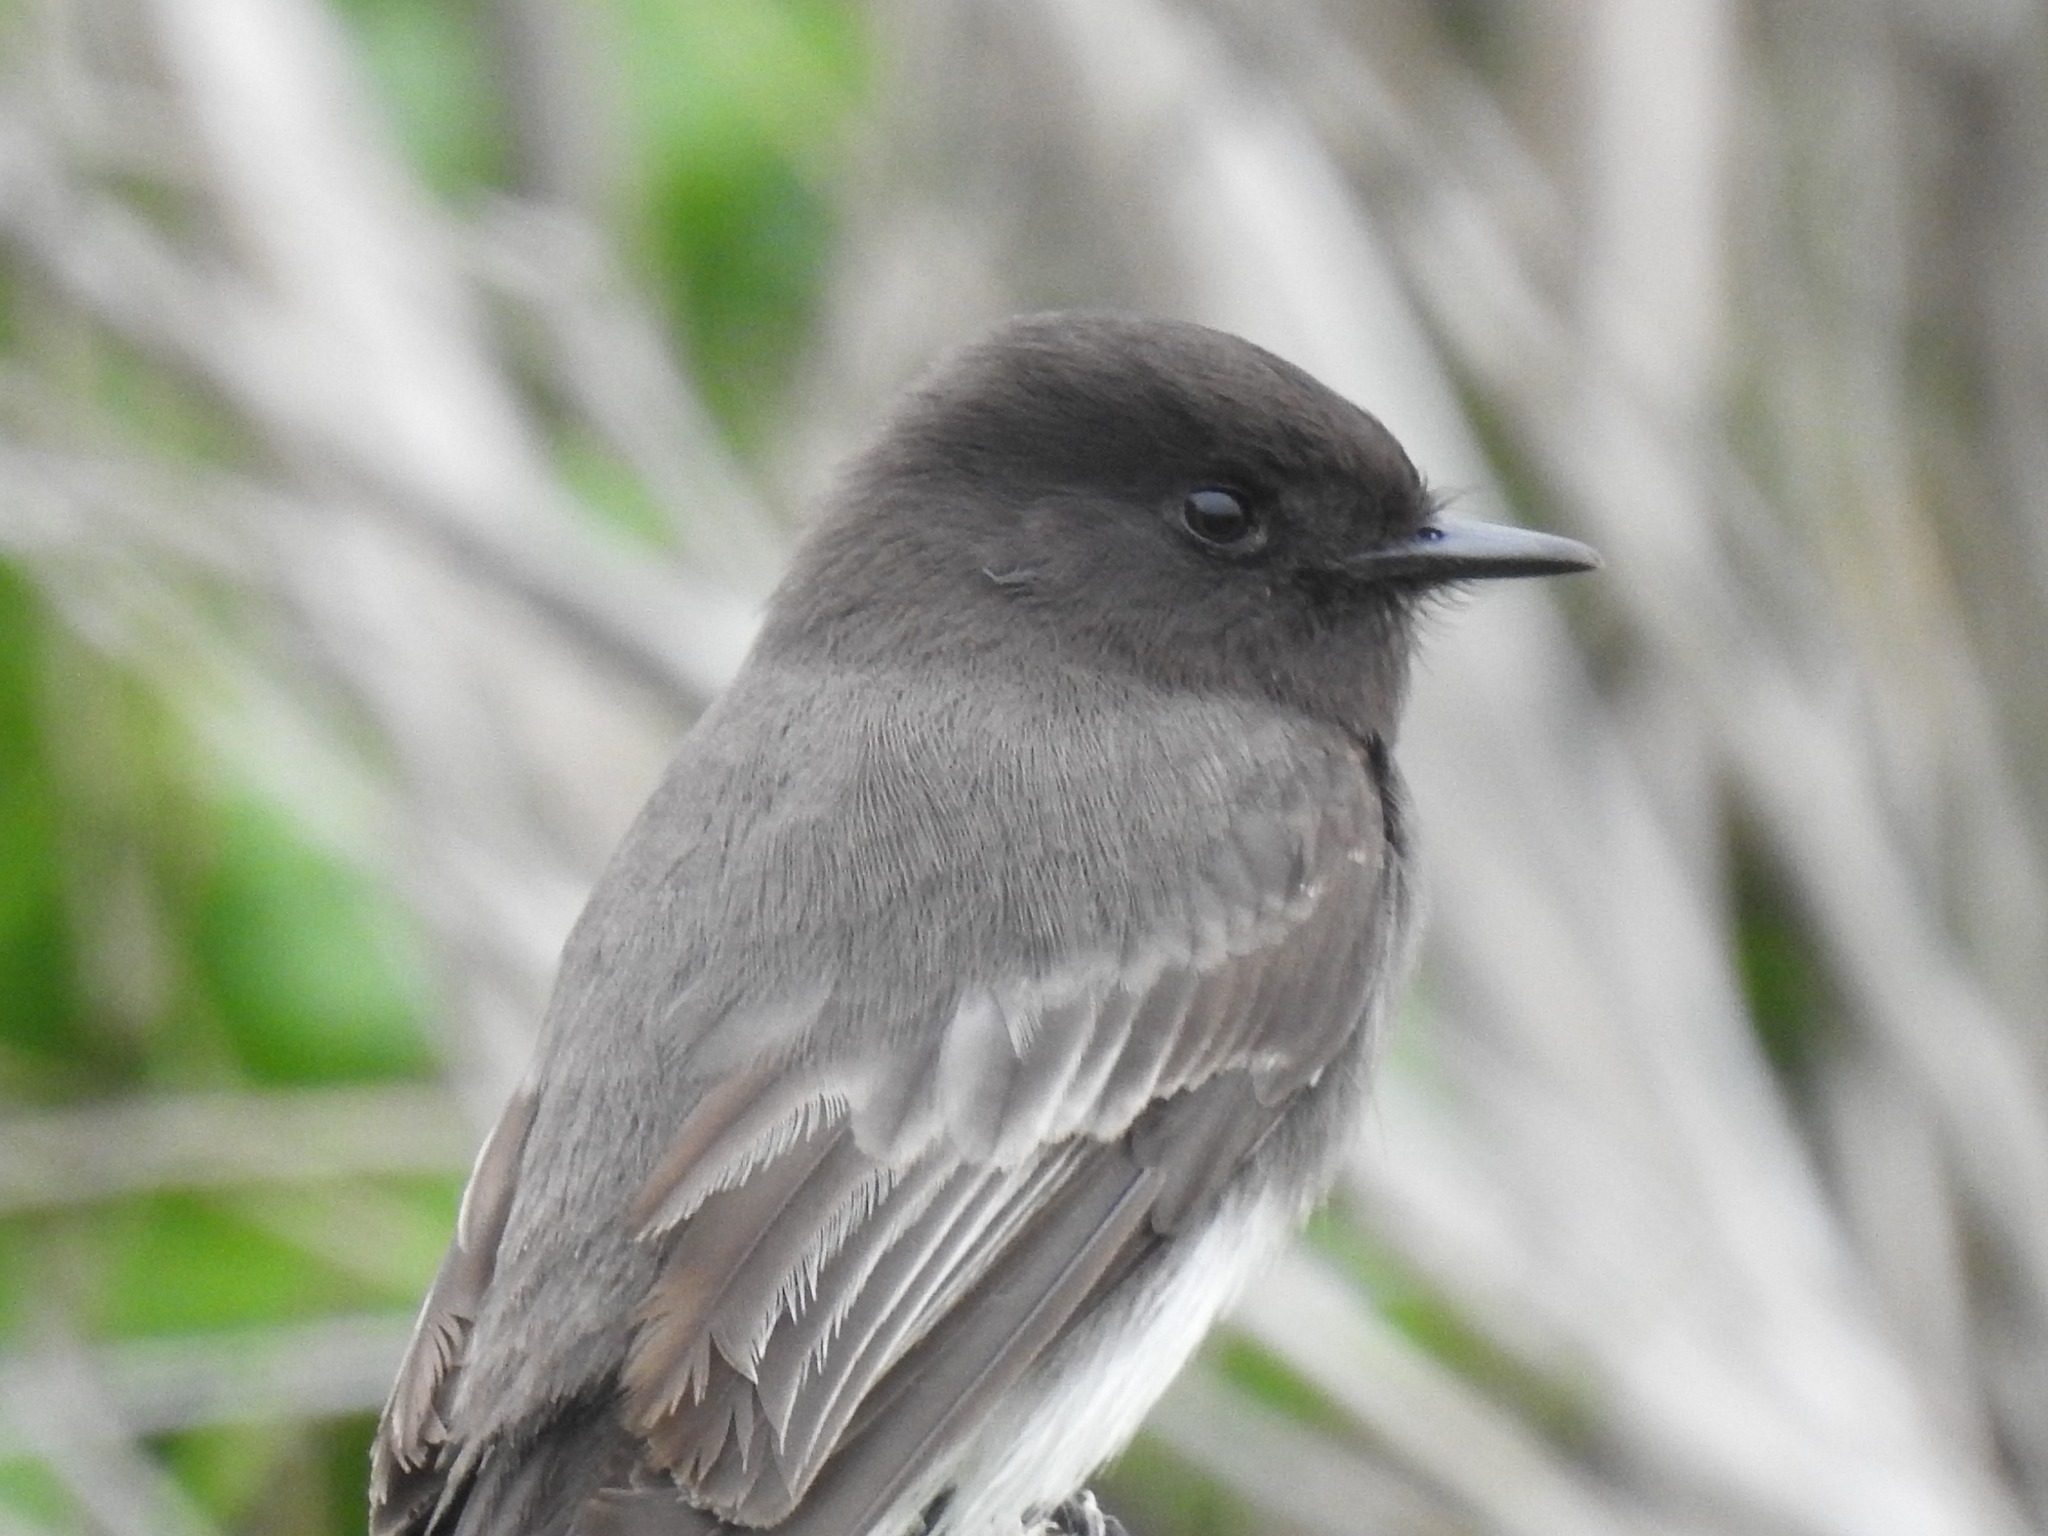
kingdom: Animalia
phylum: Chordata
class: Aves
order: Passeriformes
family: Tyrannidae
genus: Sayornis
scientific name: Sayornis nigricans
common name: Black phoebe
